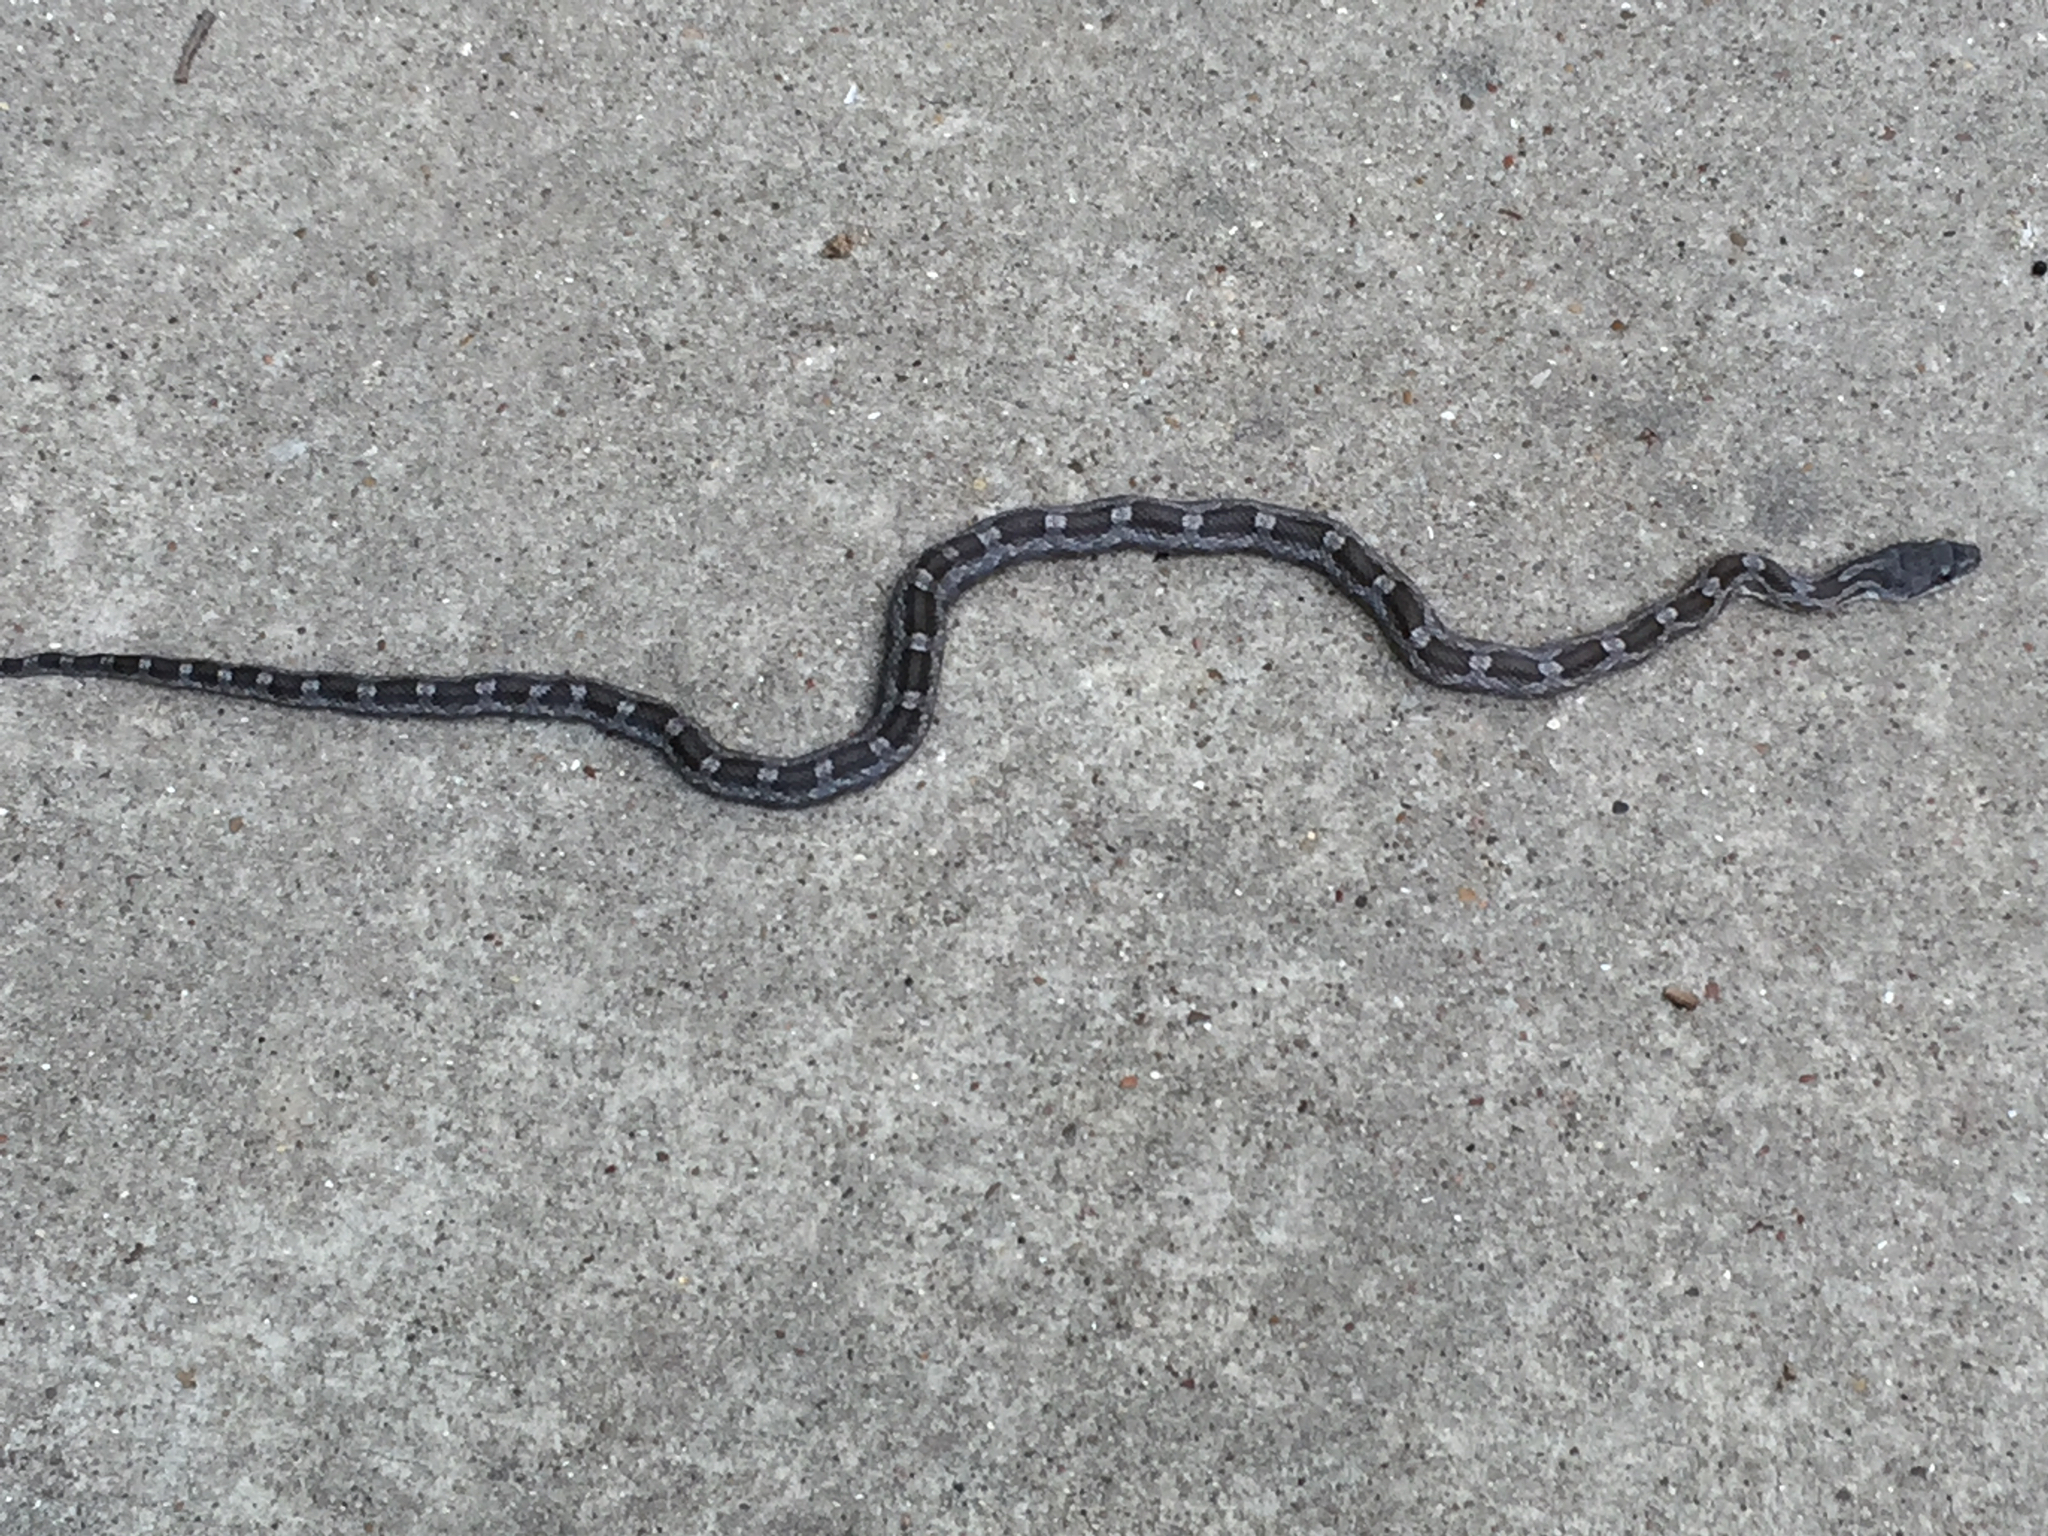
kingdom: Animalia
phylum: Chordata
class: Squamata
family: Colubridae
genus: Pantherophis
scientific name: Pantherophis obsoletus
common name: Black rat snake
